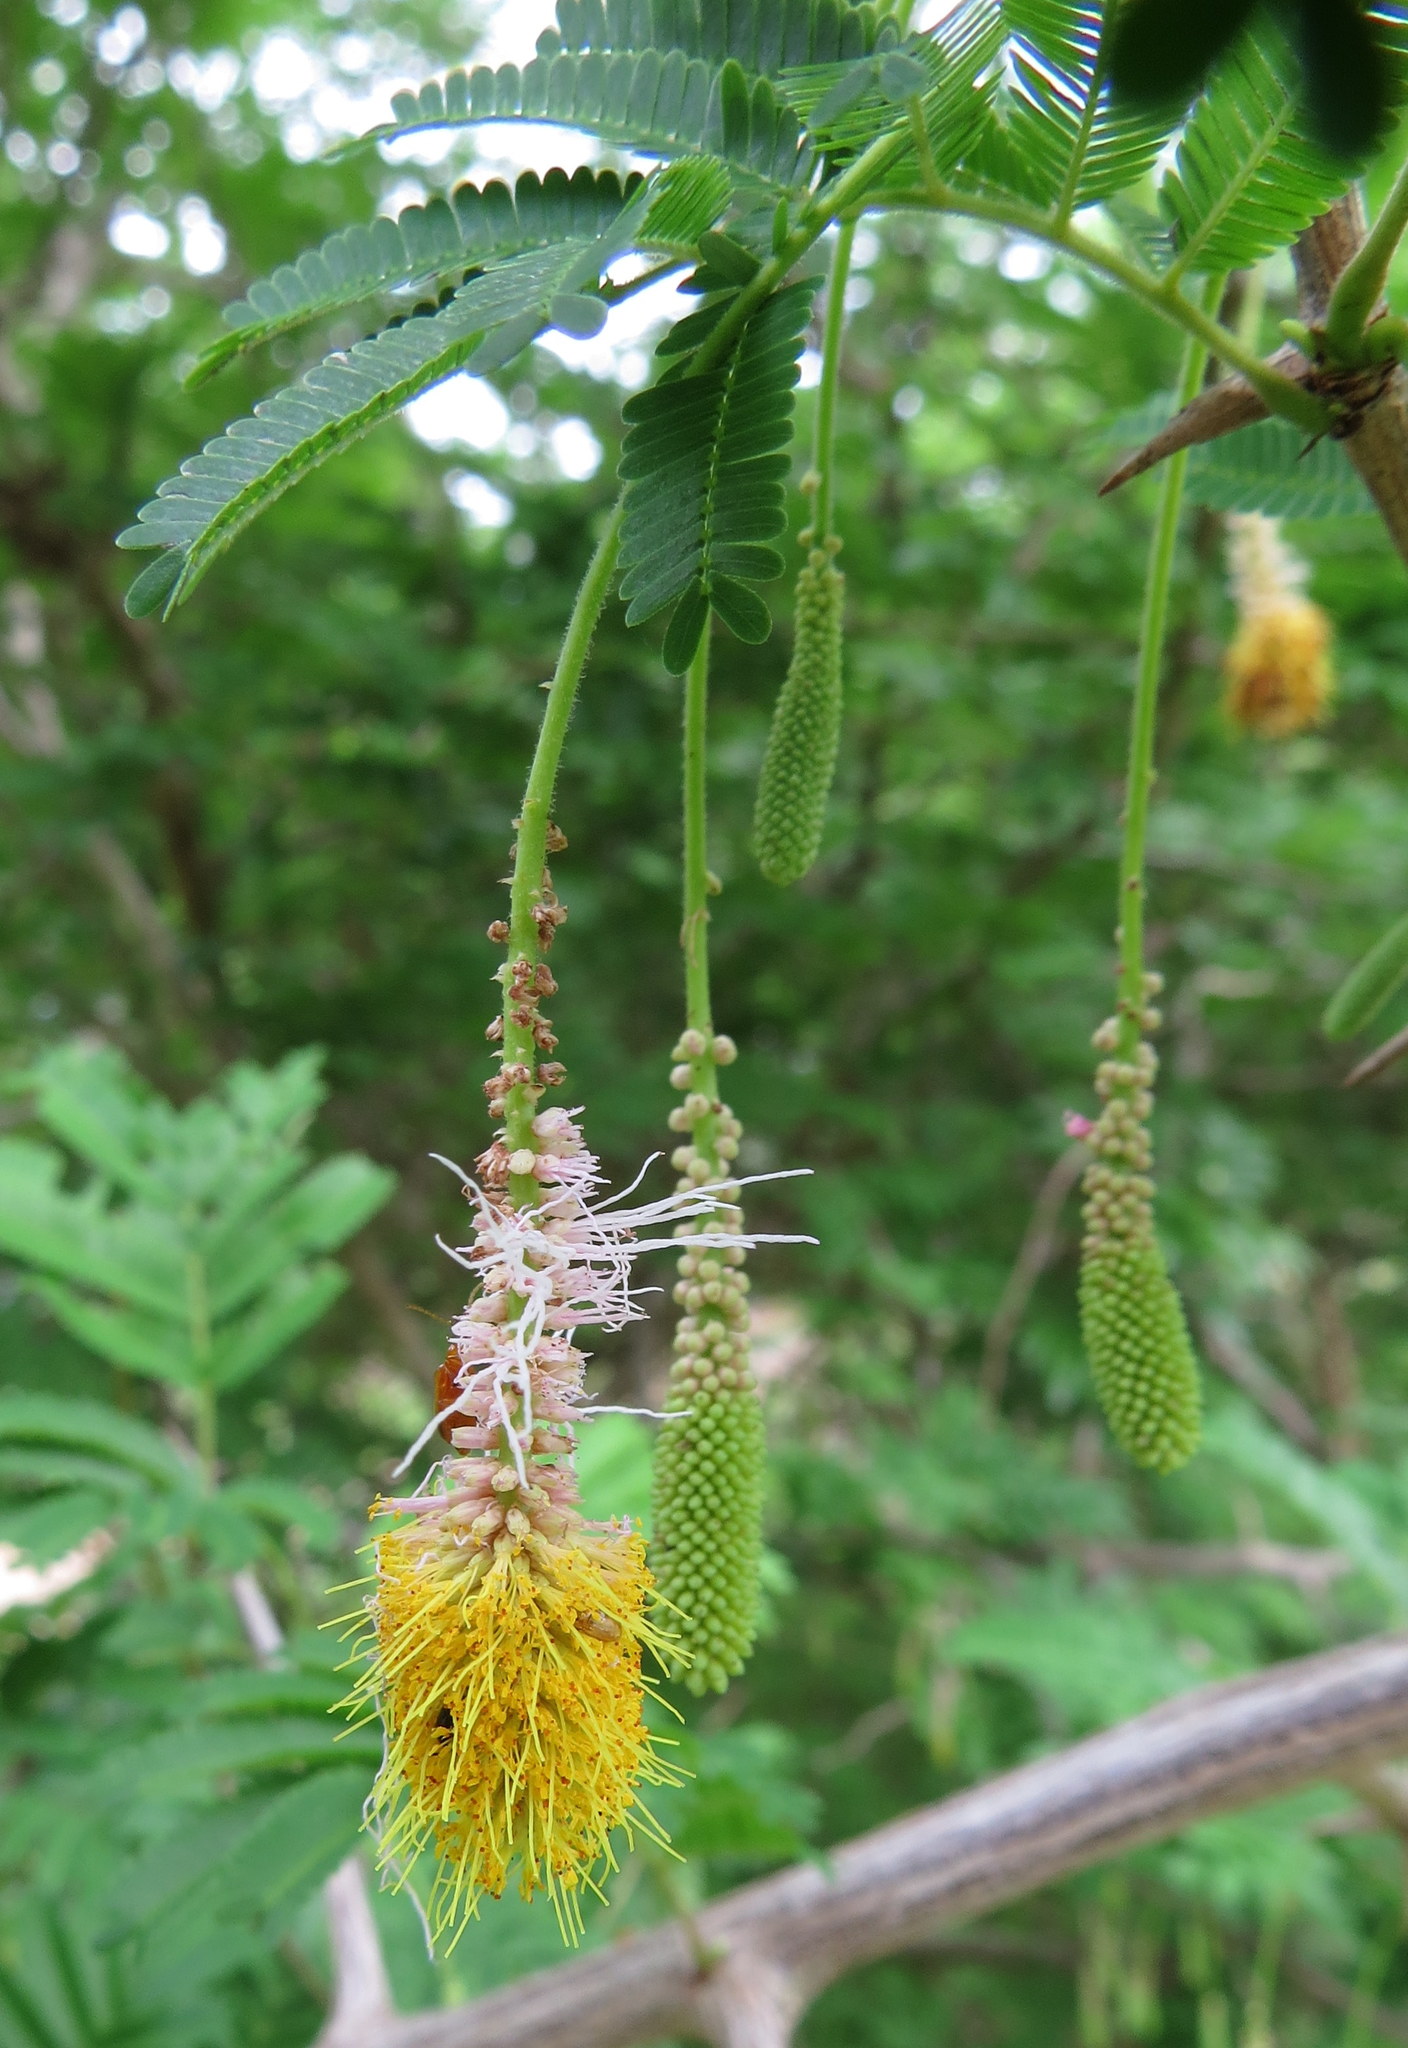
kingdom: Plantae
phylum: Tracheophyta
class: Magnoliopsida
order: Fabales
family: Fabaceae
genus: Dichrostachys
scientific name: Dichrostachys cinerea
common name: Sicklebush
